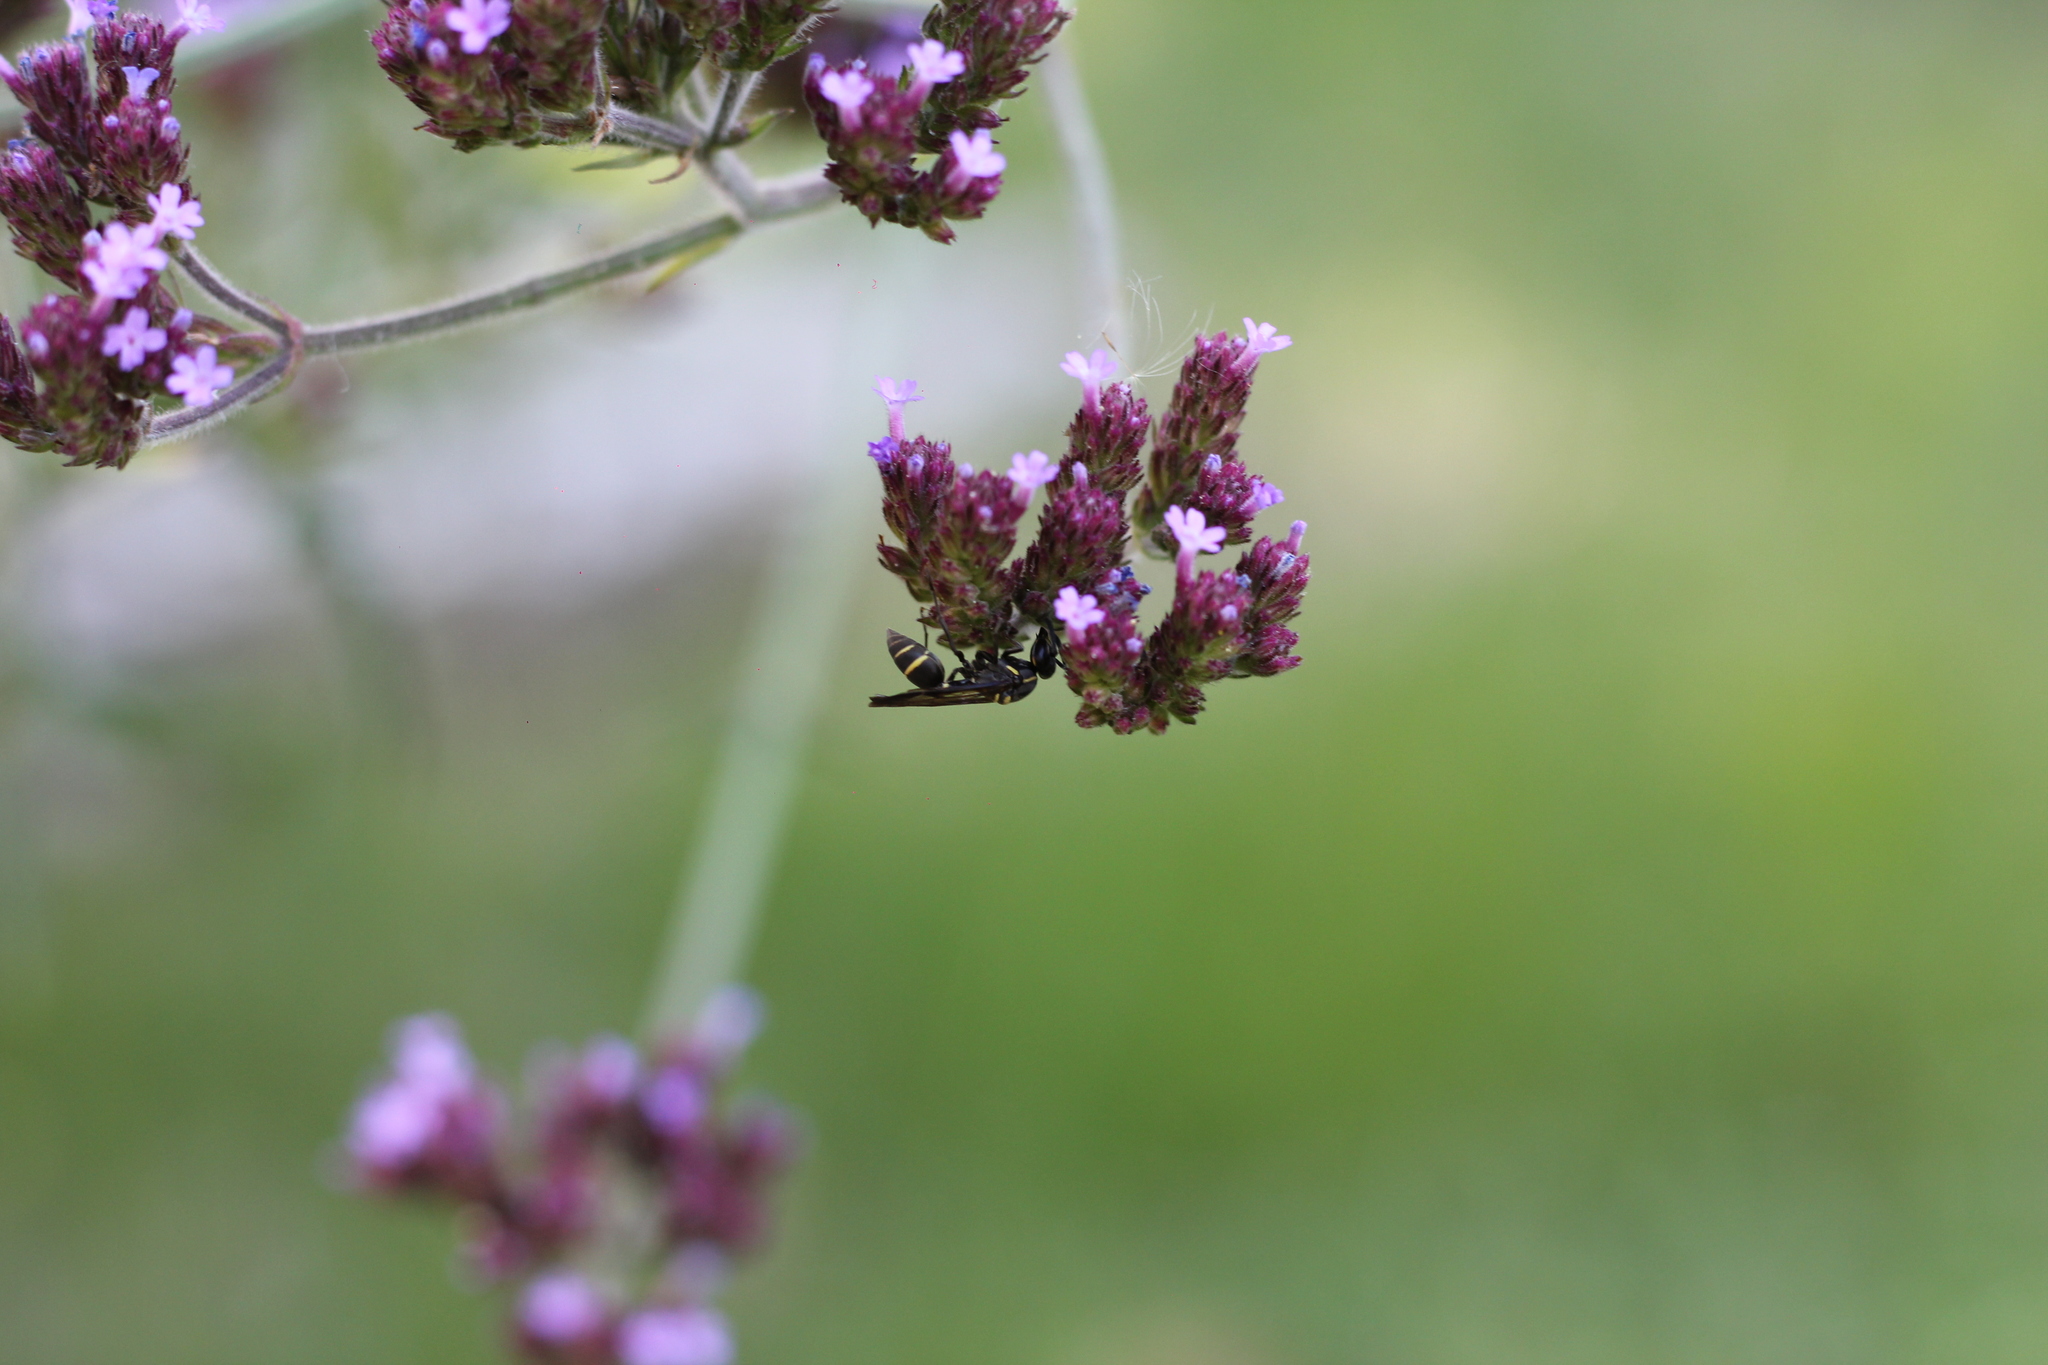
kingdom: Animalia
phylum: Arthropoda
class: Insecta
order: Hymenoptera
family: Eumenidae
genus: Polybia
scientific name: Polybia occidentalis
